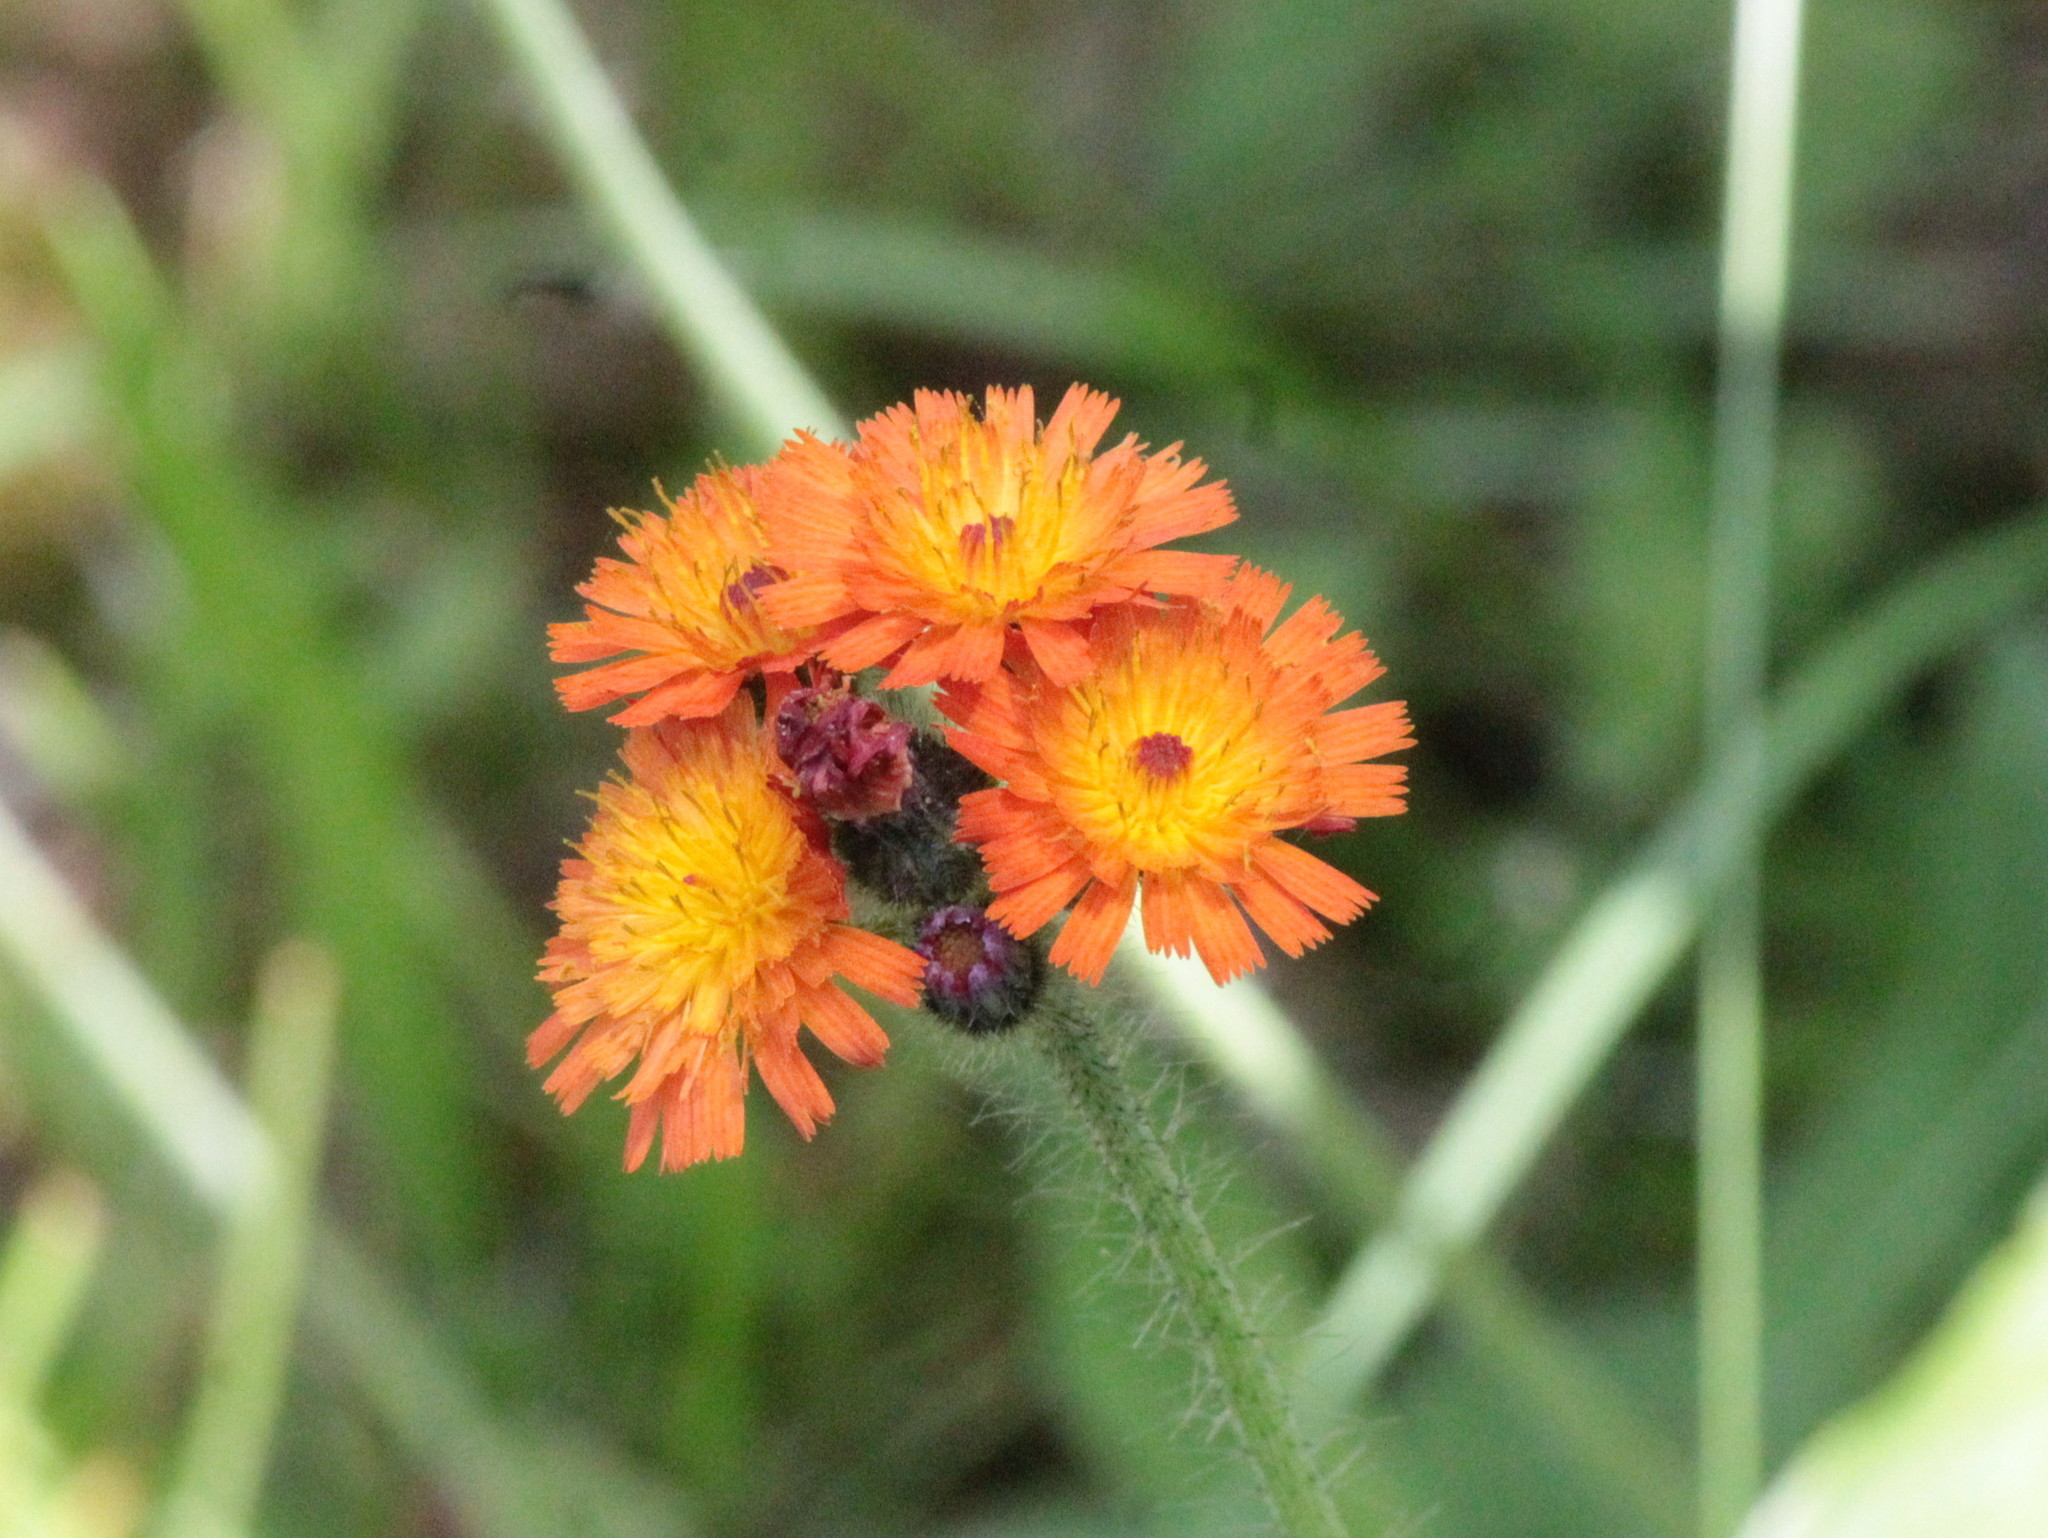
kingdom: Plantae
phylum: Tracheophyta
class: Magnoliopsida
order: Asterales
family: Asteraceae
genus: Pilosella
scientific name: Pilosella aurantiaca
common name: Fox-and-cubs
